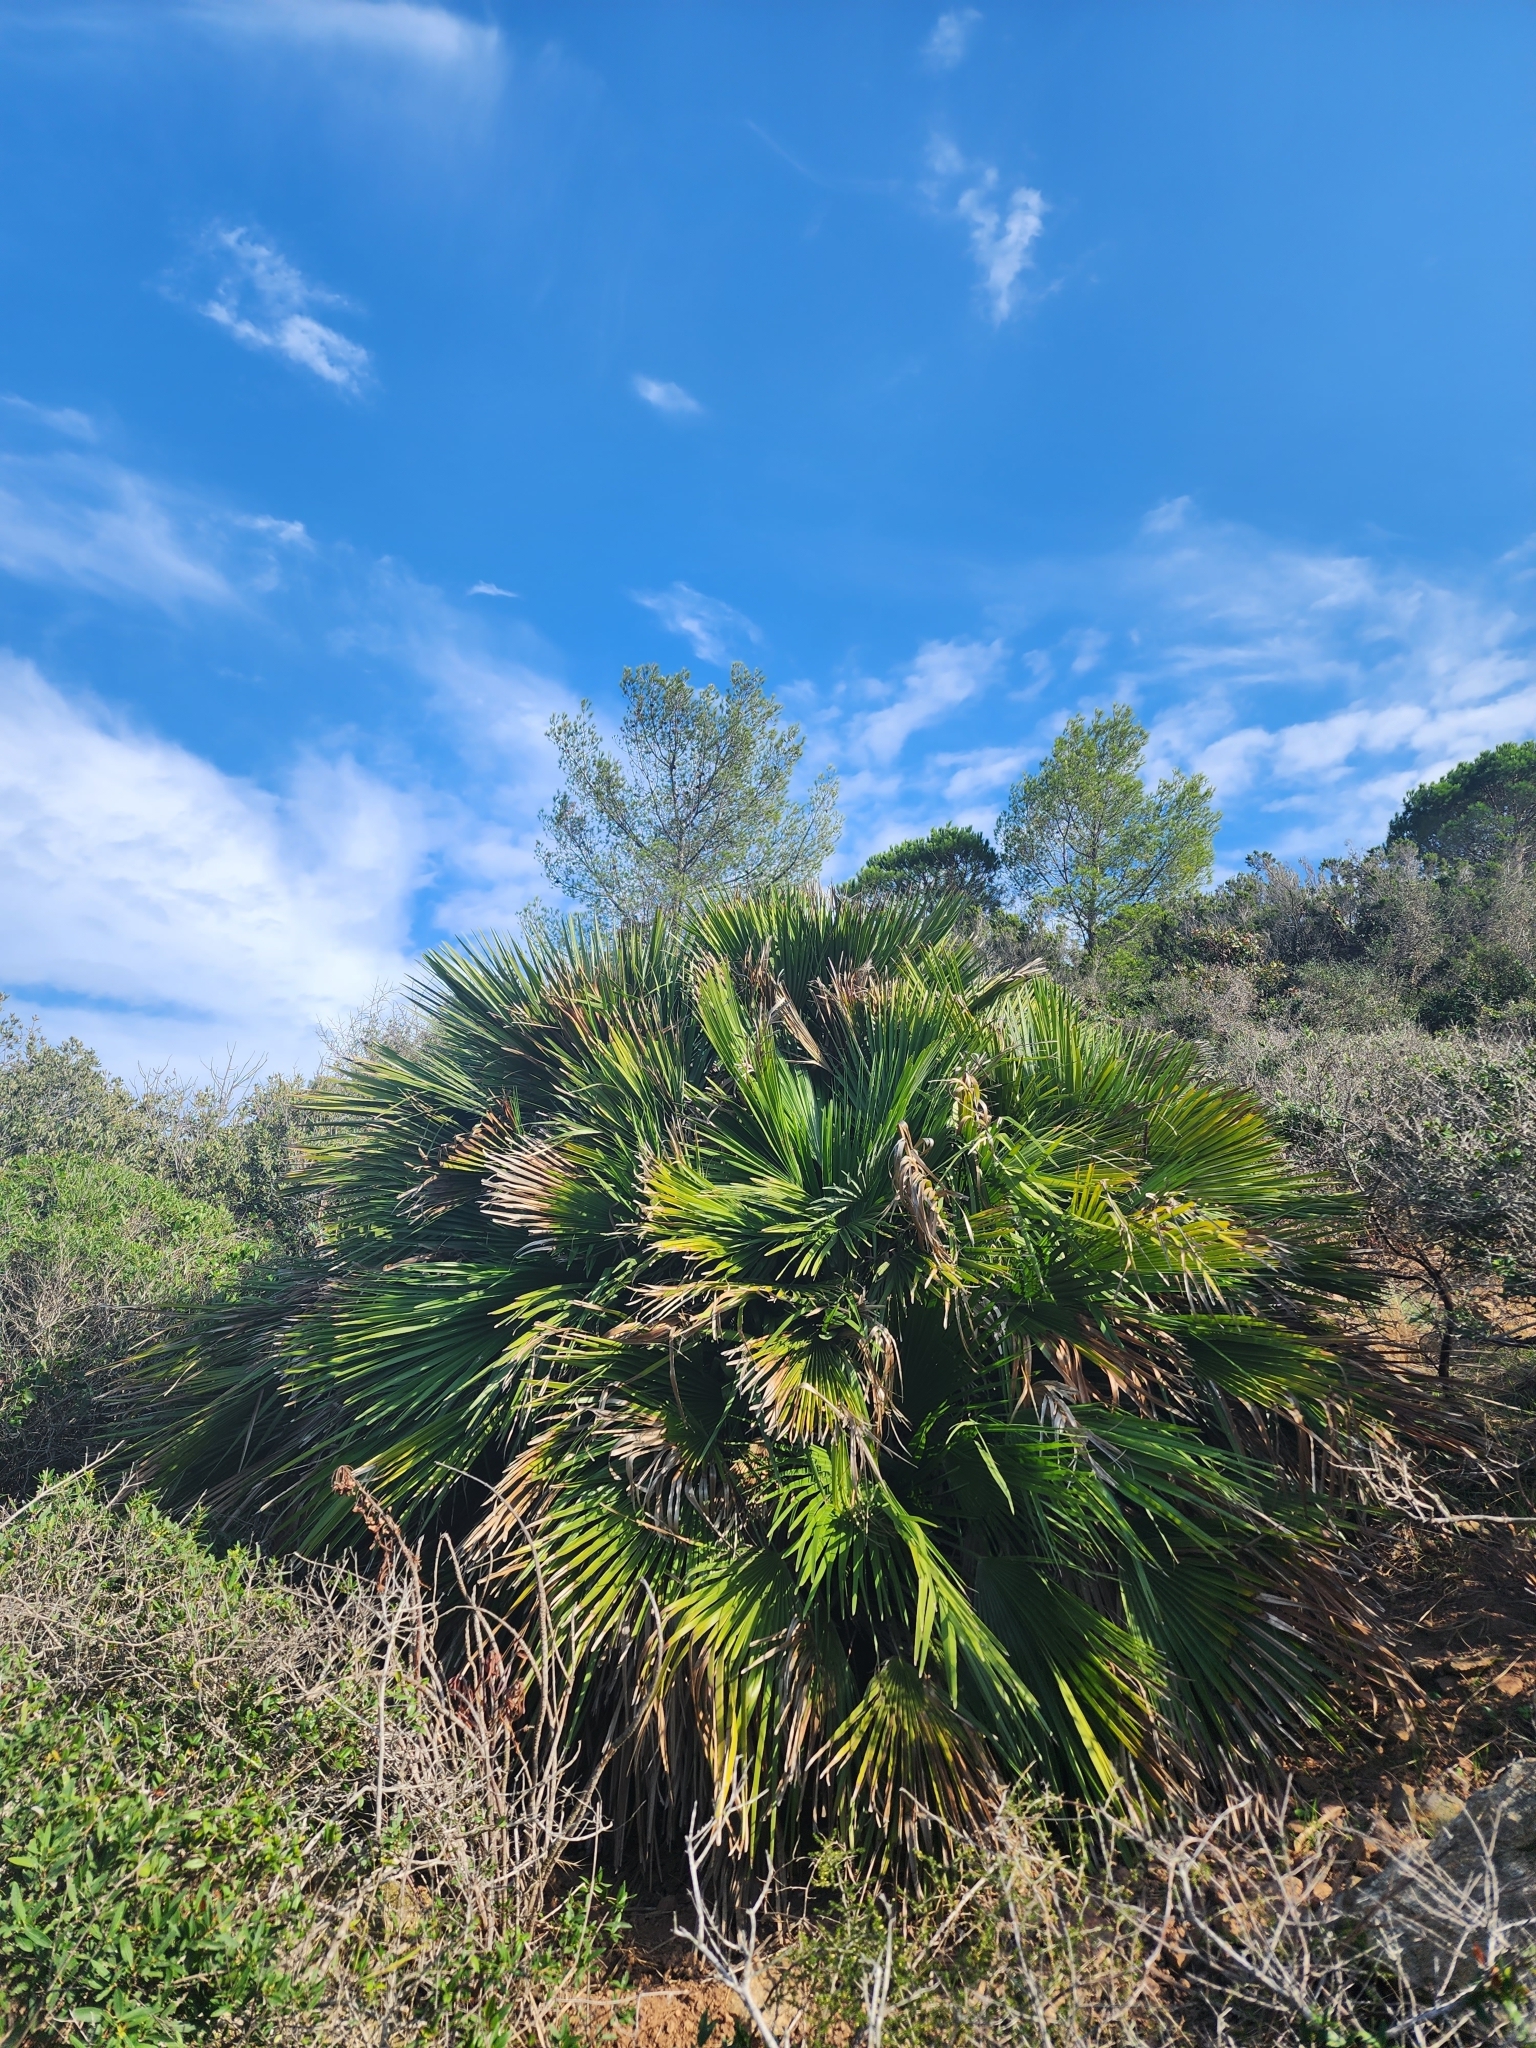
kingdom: Plantae
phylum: Tracheophyta
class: Liliopsida
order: Arecales
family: Arecaceae
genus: Chamaerops
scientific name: Chamaerops humilis
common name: Dwarf fan palm
